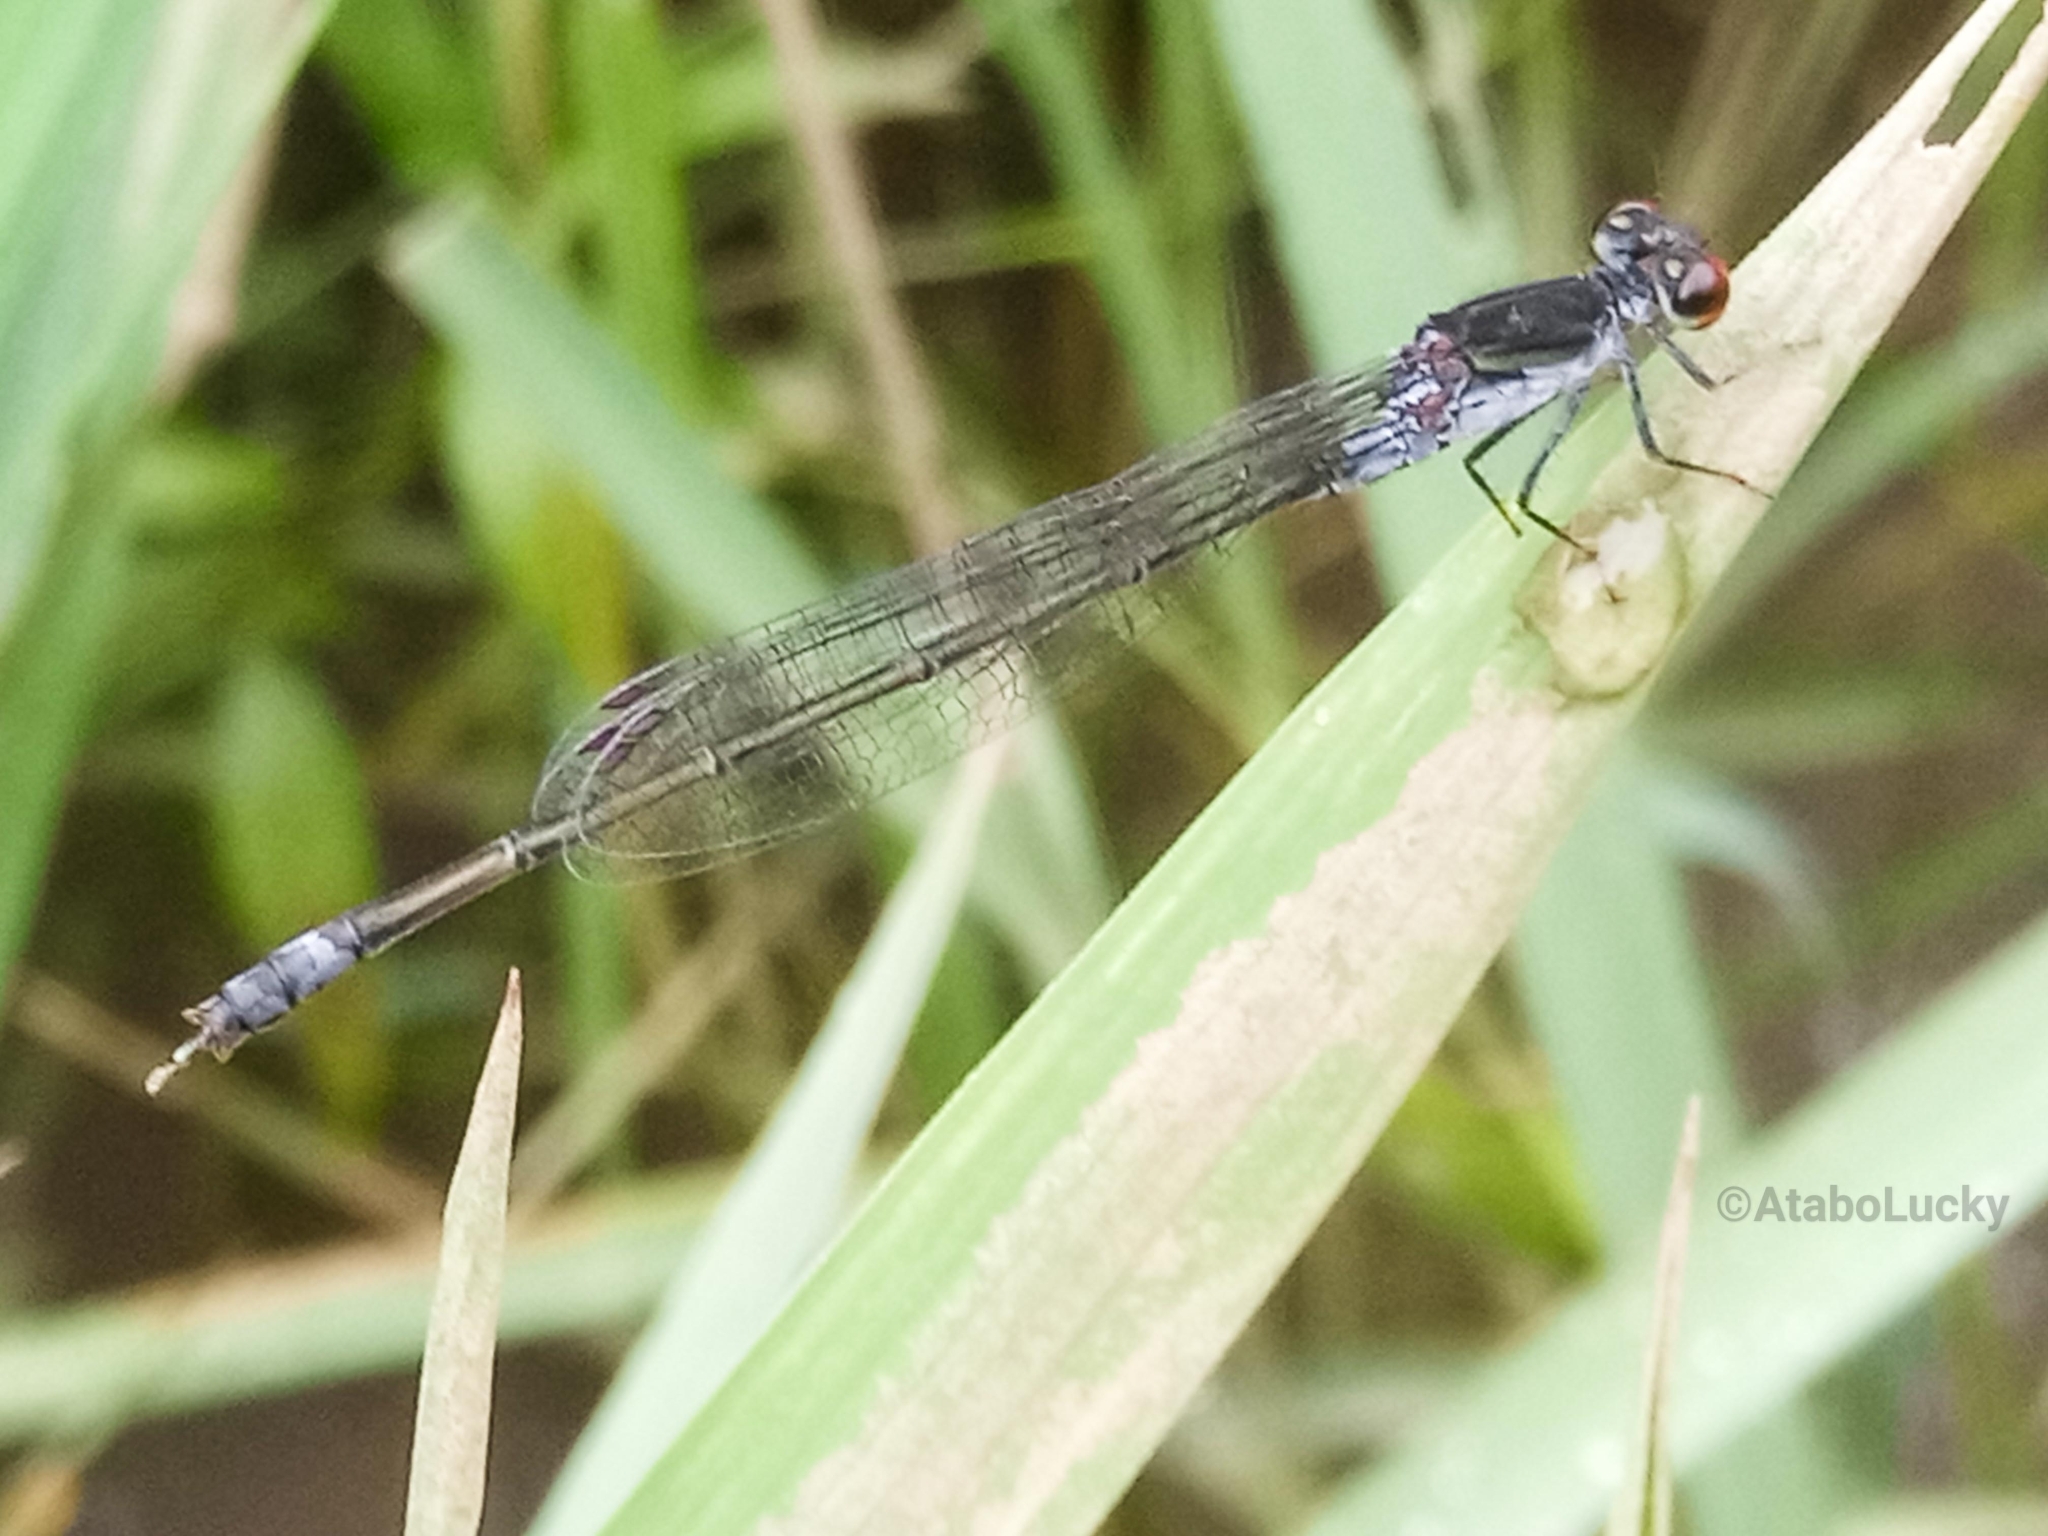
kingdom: Animalia
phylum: Arthropoda
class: Insecta
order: Odonata
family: Coenagrionidae
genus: Pseudagrion
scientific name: Pseudagrion hamoni
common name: Swarthy sprite
